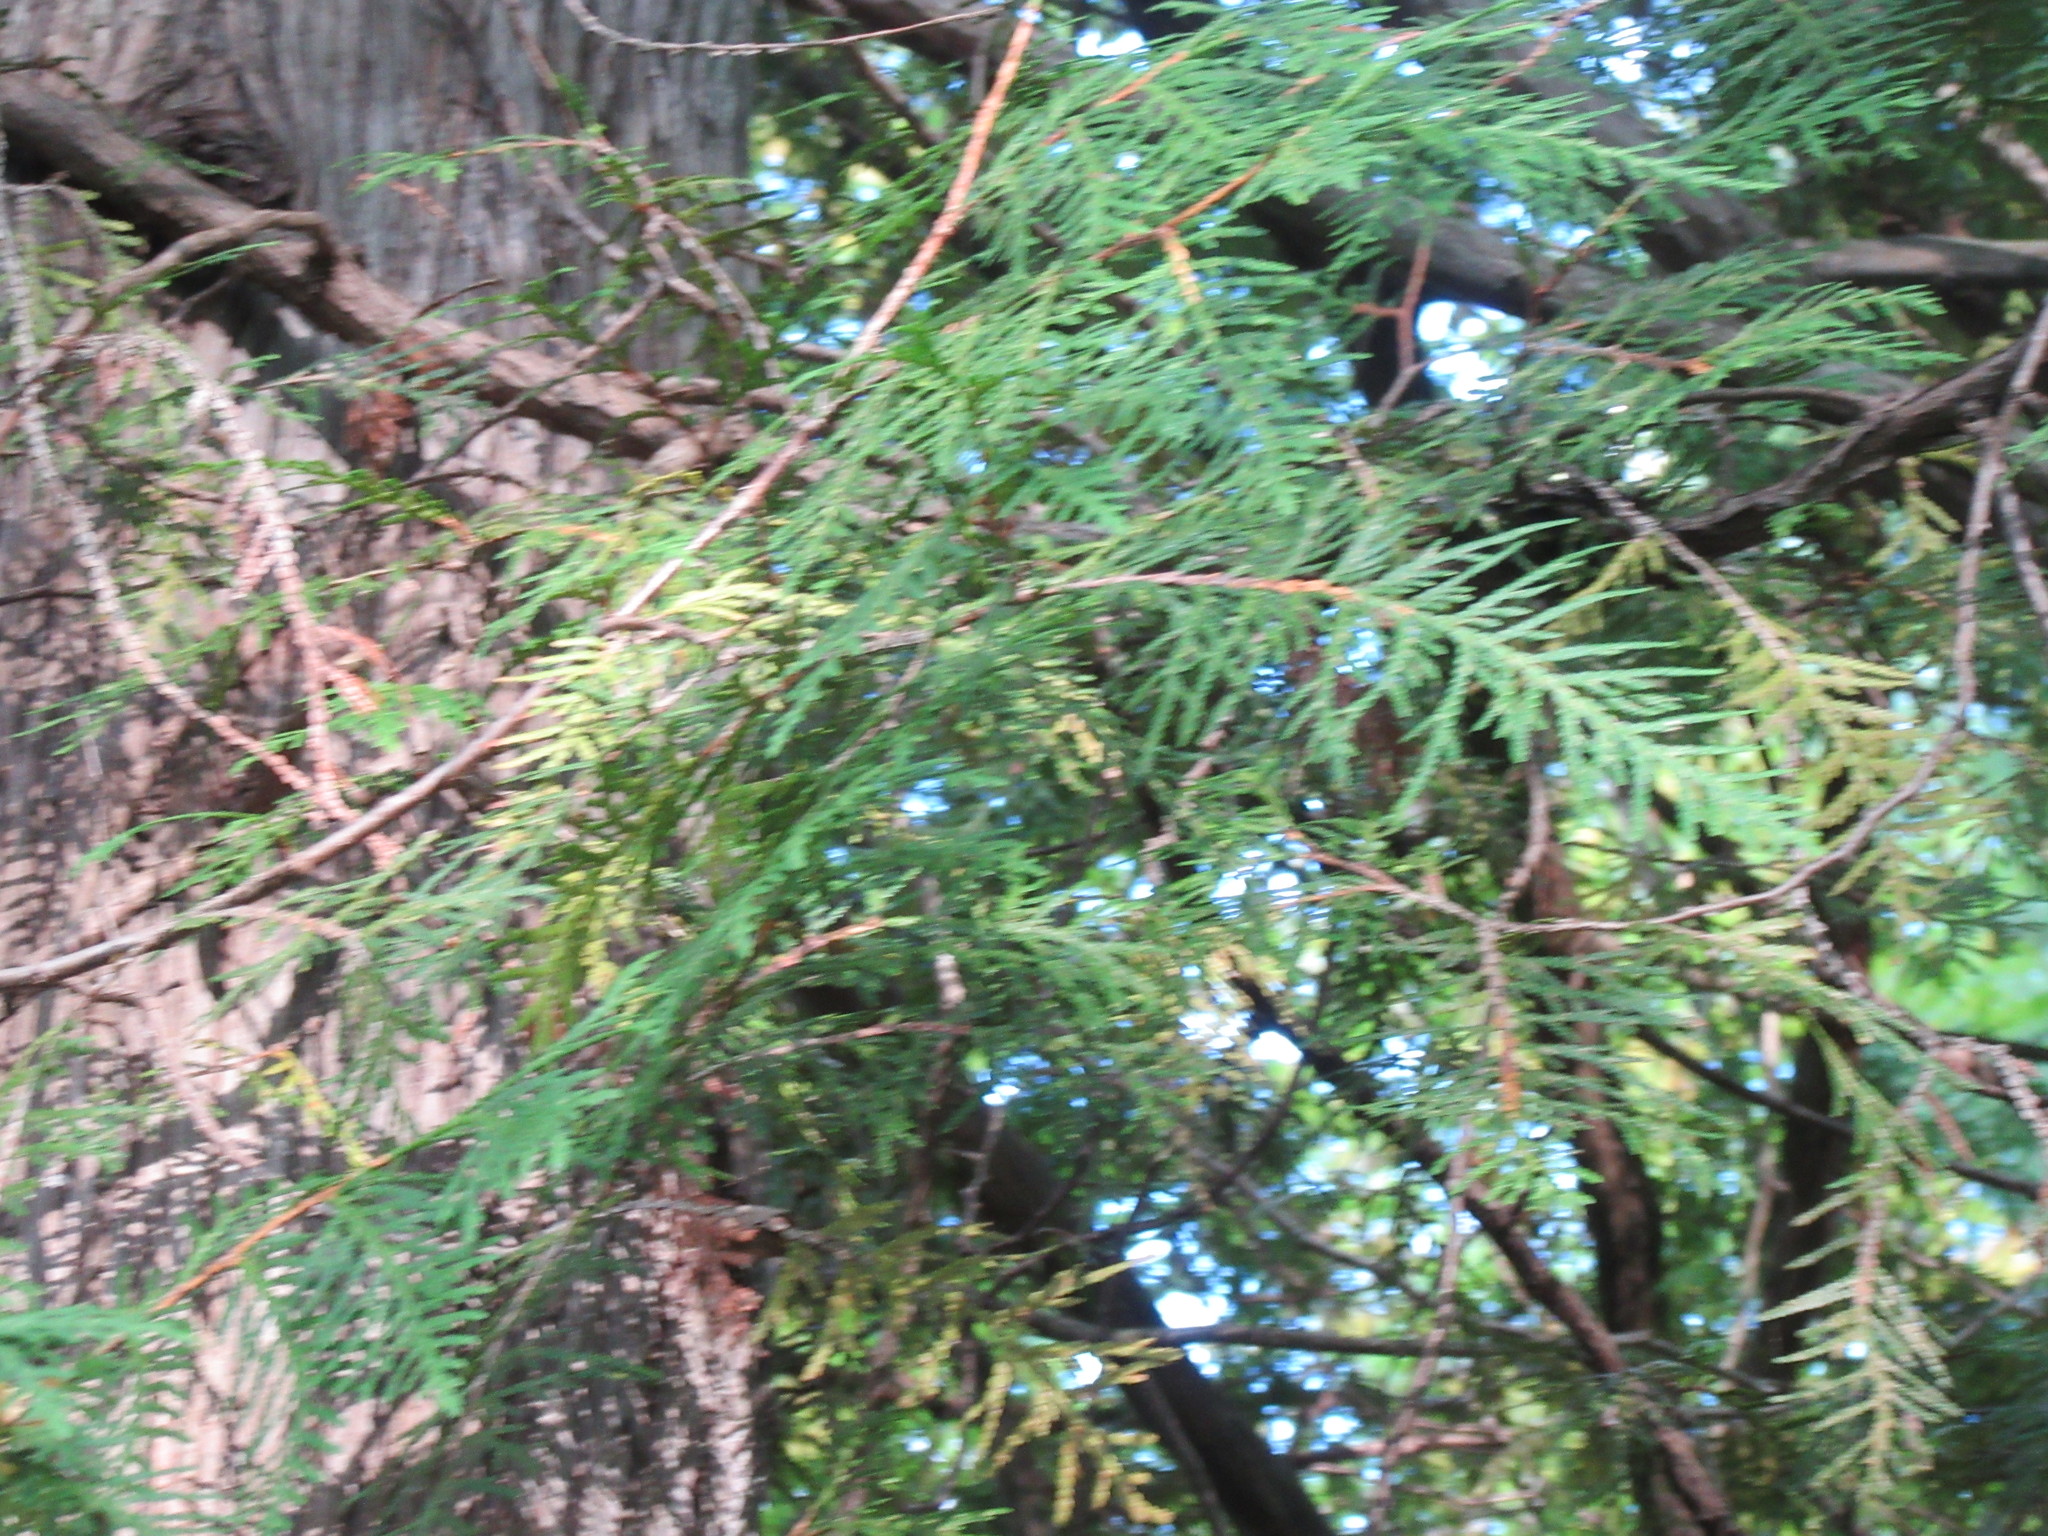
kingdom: Plantae
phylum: Tracheophyta
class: Pinopsida
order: Pinales
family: Cupressaceae
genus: Thuja
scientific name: Thuja occidentalis
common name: Northern white-cedar
